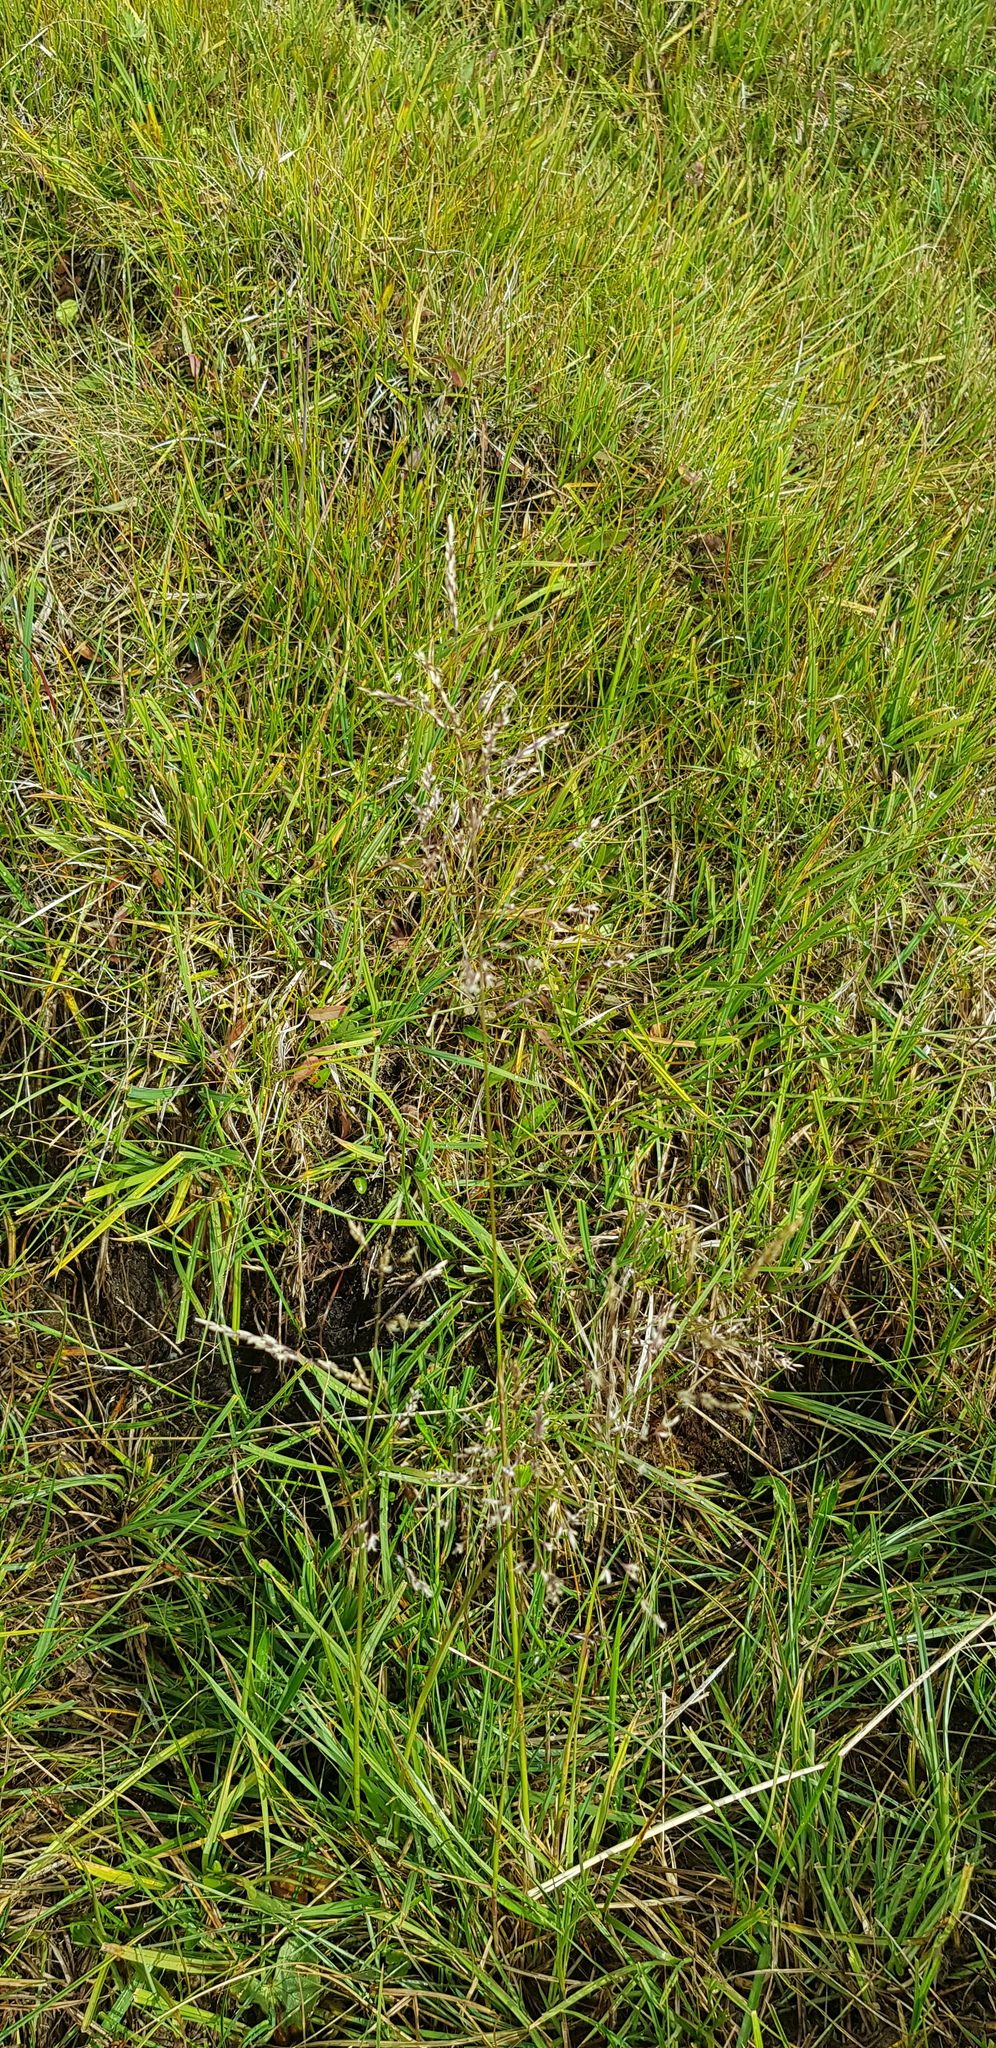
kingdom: Plantae
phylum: Tracheophyta
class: Liliopsida
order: Poales
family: Poaceae
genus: Poa
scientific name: Poa pratensis
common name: Kentucky bluegrass
